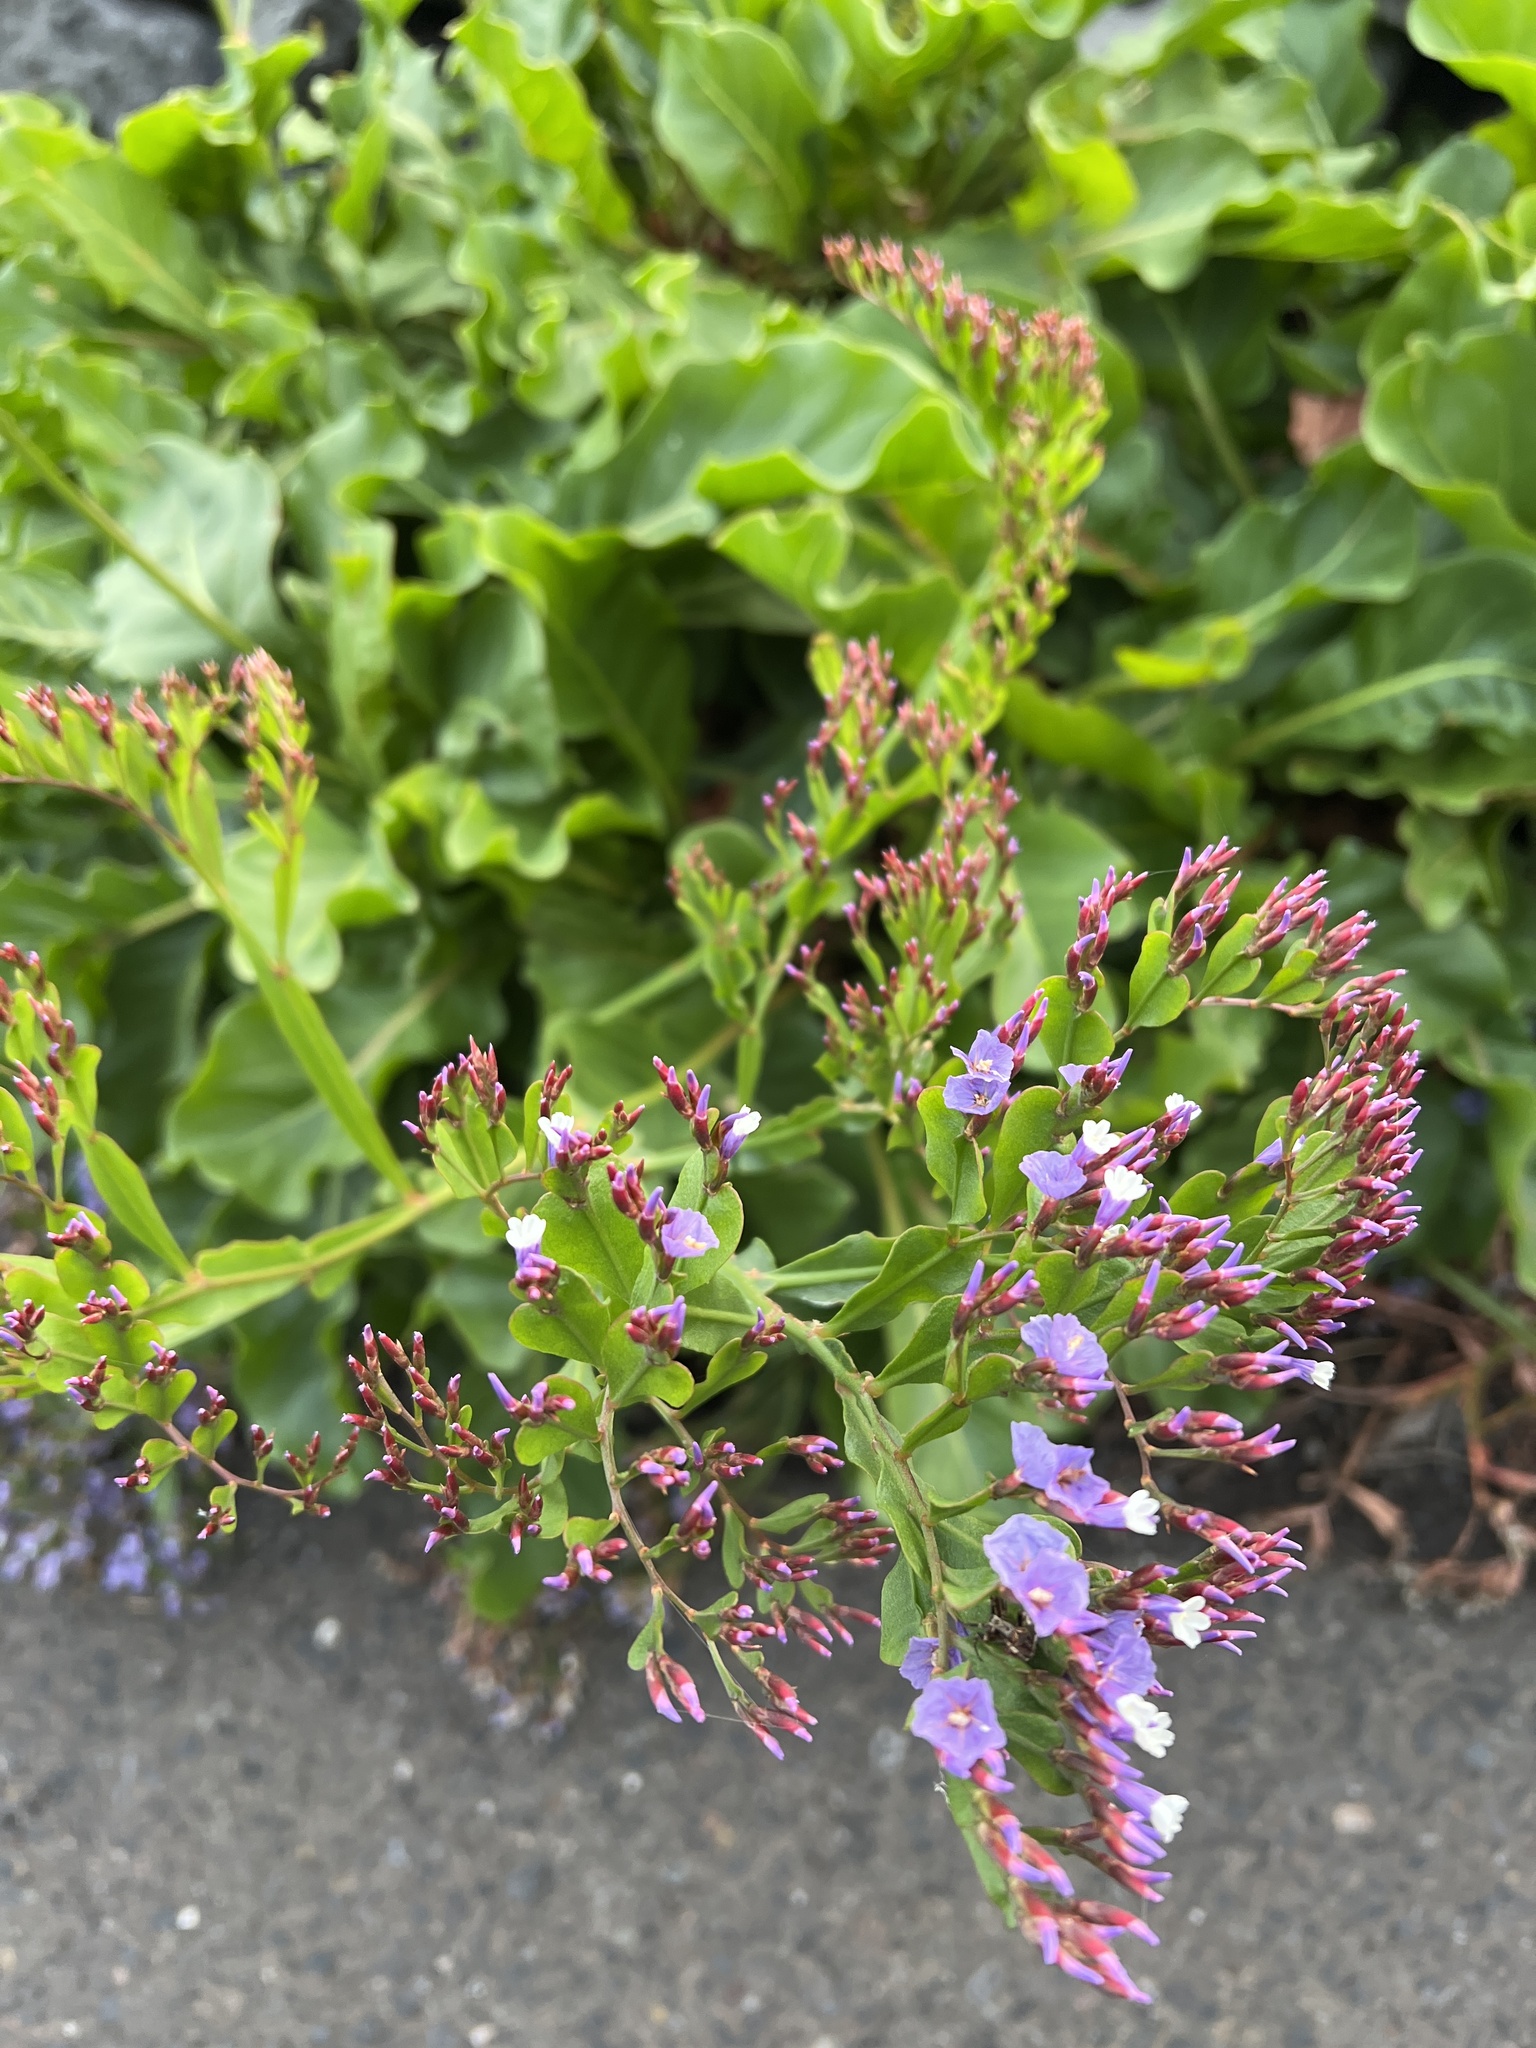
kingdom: Plantae
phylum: Tracheophyta
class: Magnoliopsida
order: Caryophyllales
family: Plumbaginaceae
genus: Limonium
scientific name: Limonium pectinatum
